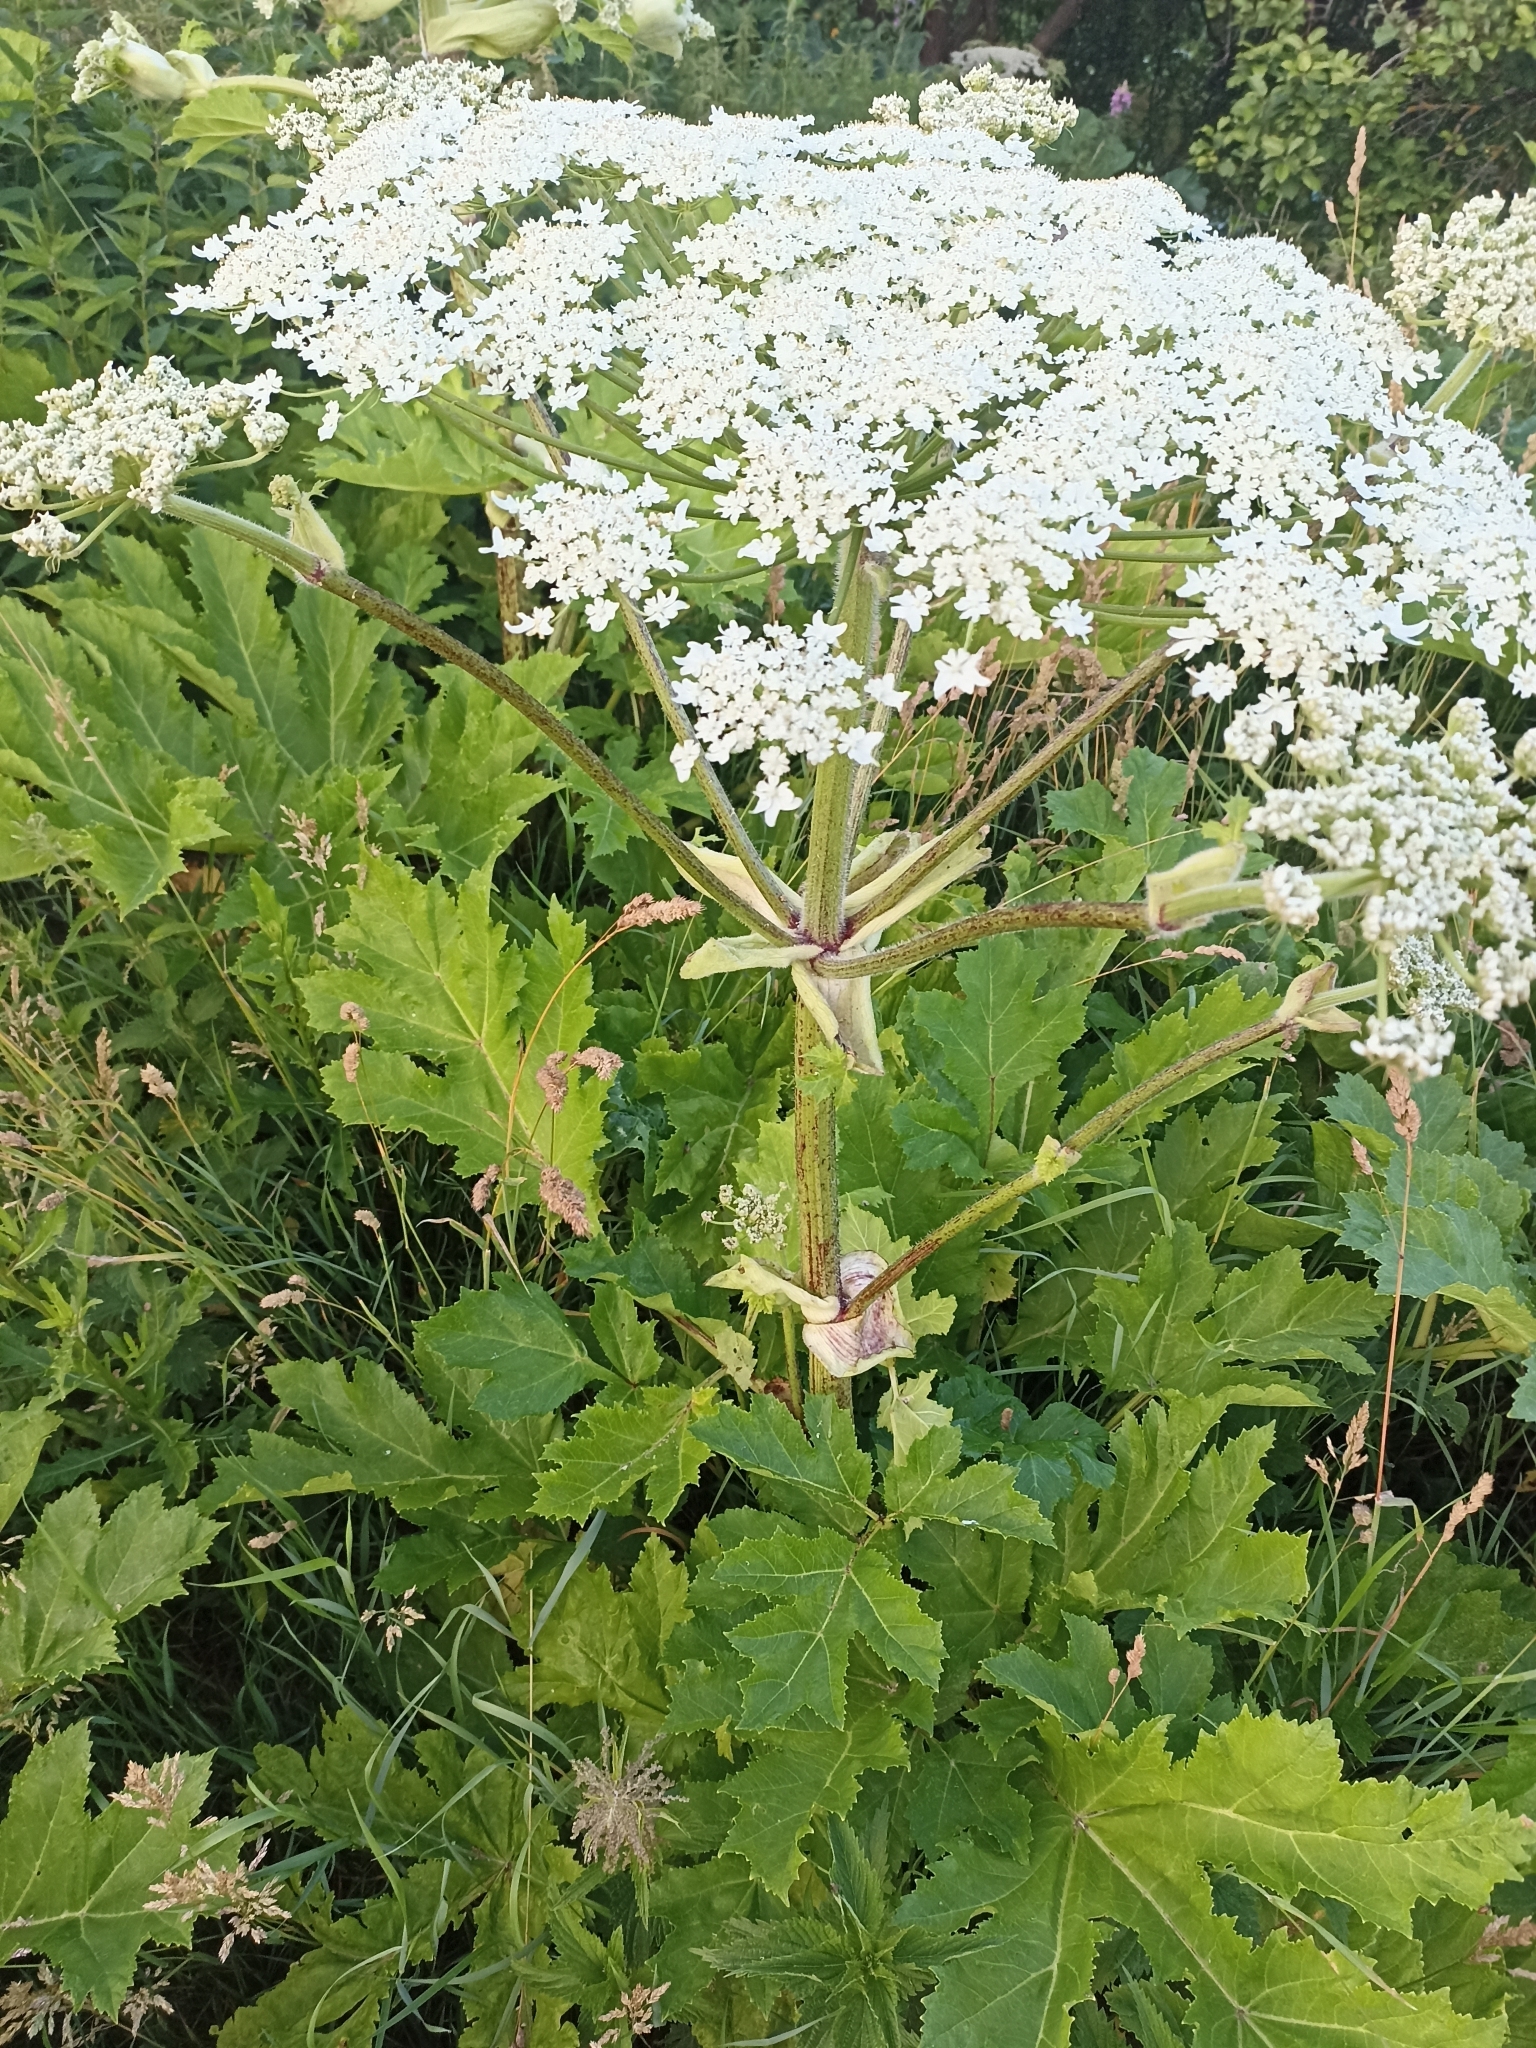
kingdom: Plantae
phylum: Tracheophyta
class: Magnoliopsida
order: Apiales
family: Apiaceae
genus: Heracleum
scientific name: Heracleum sosnowskyi
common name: Sosnowsky's hogweed
